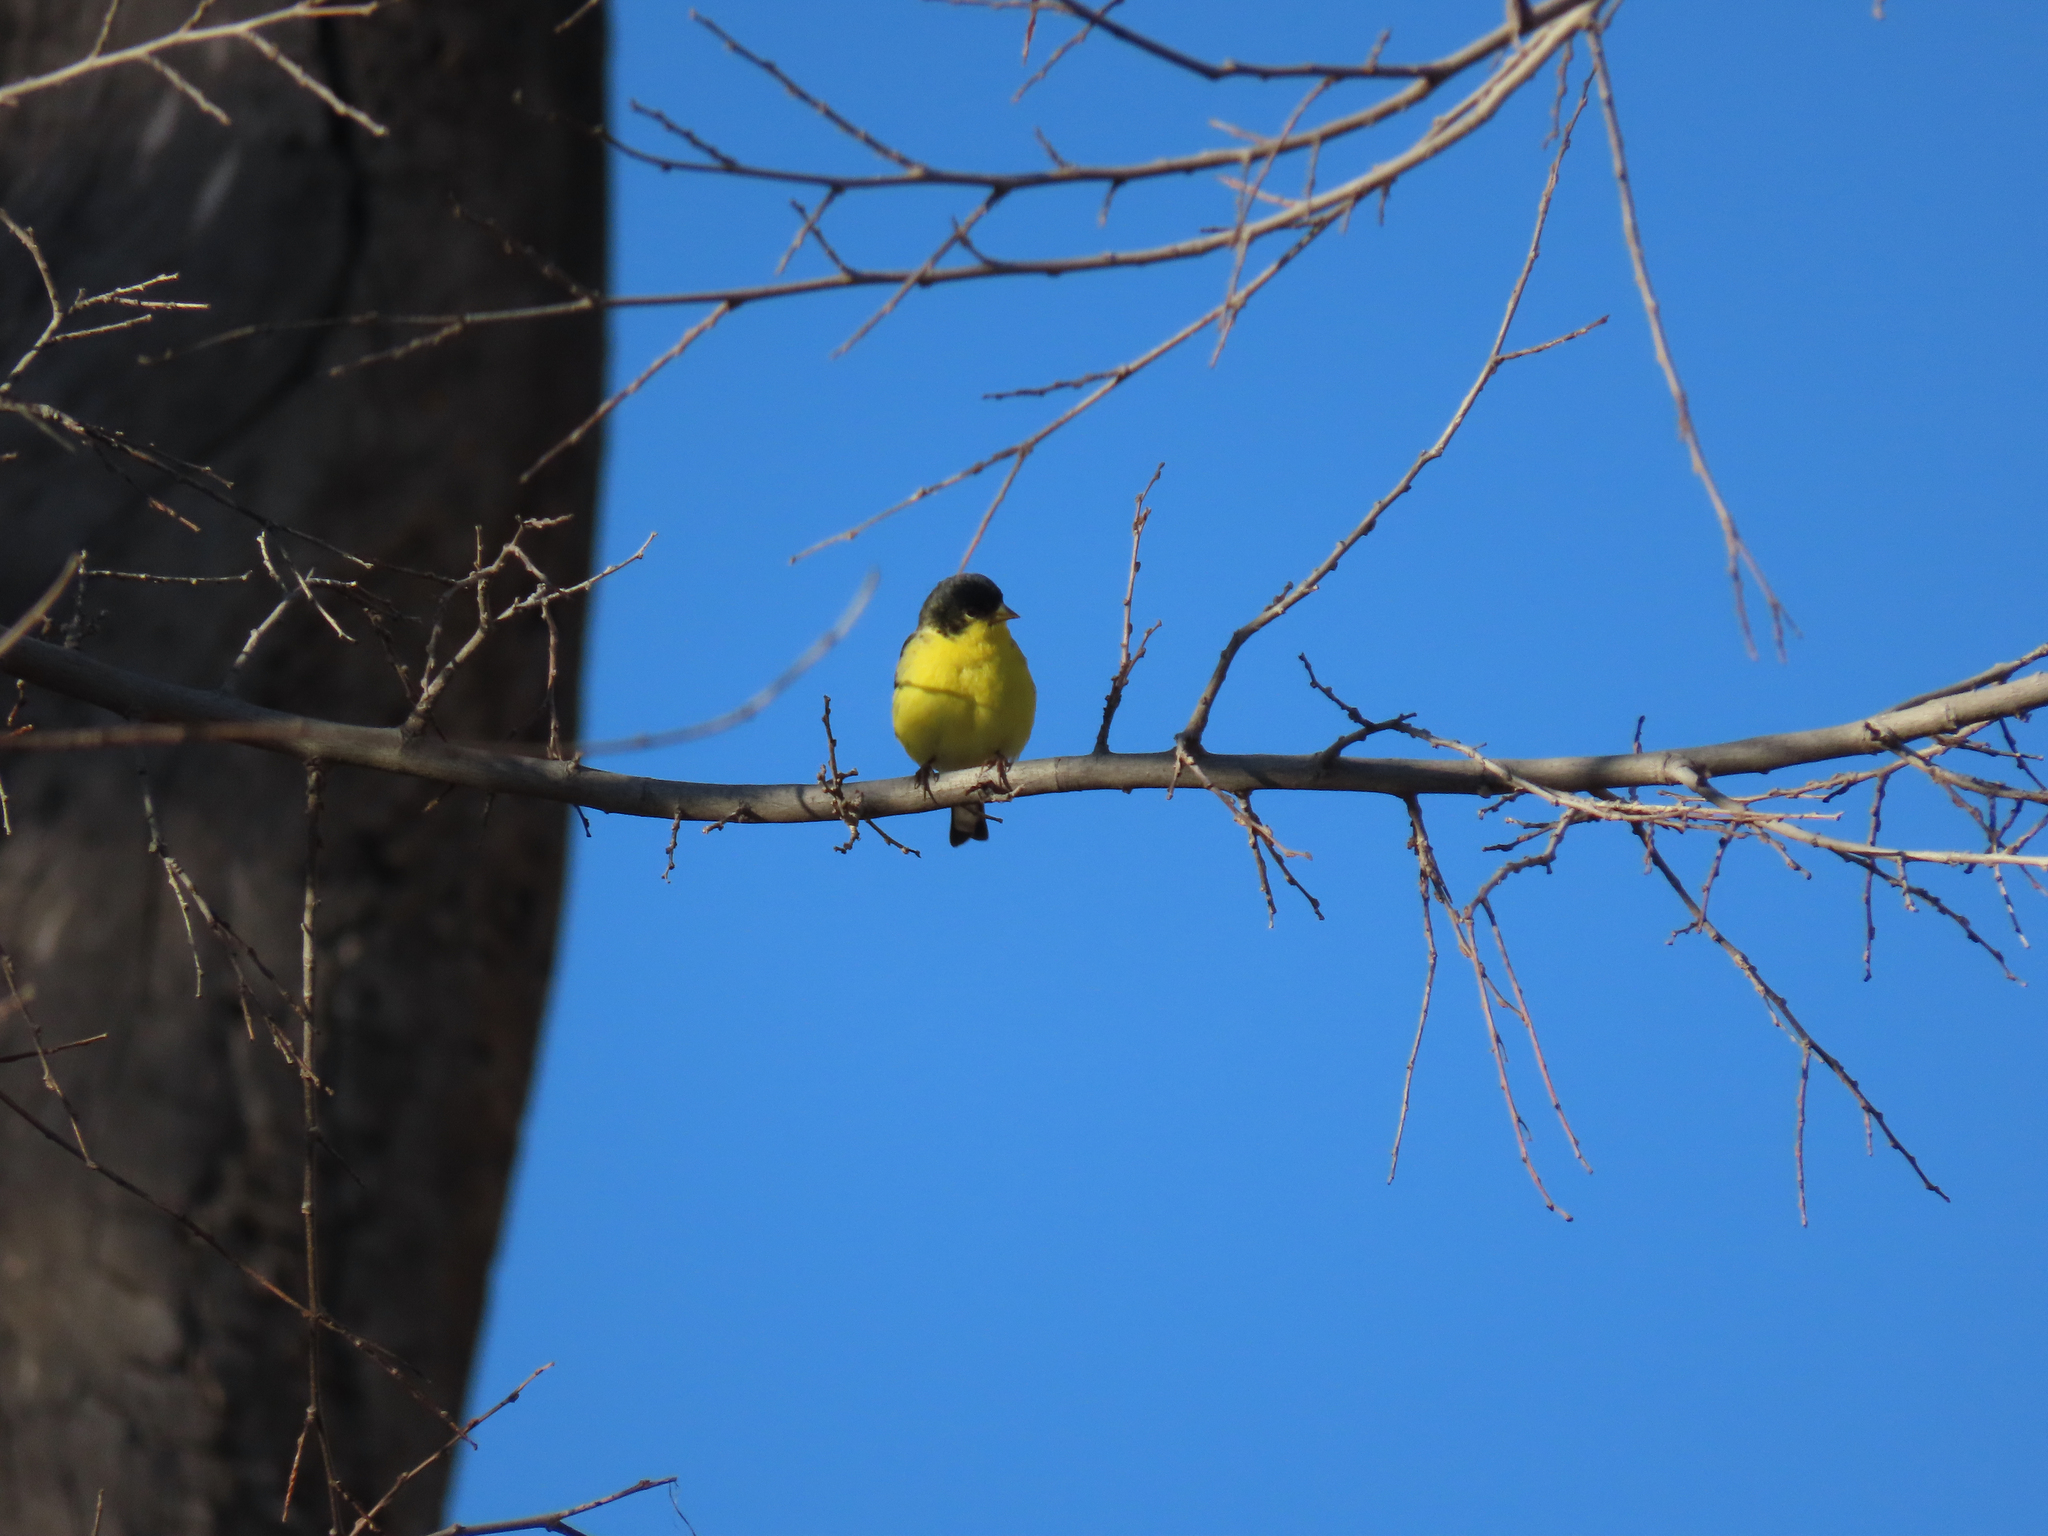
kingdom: Animalia
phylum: Chordata
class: Aves
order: Passeriformes
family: Fringillidae
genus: Spinus
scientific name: Spinus psaltria
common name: Lesser goldfinch
